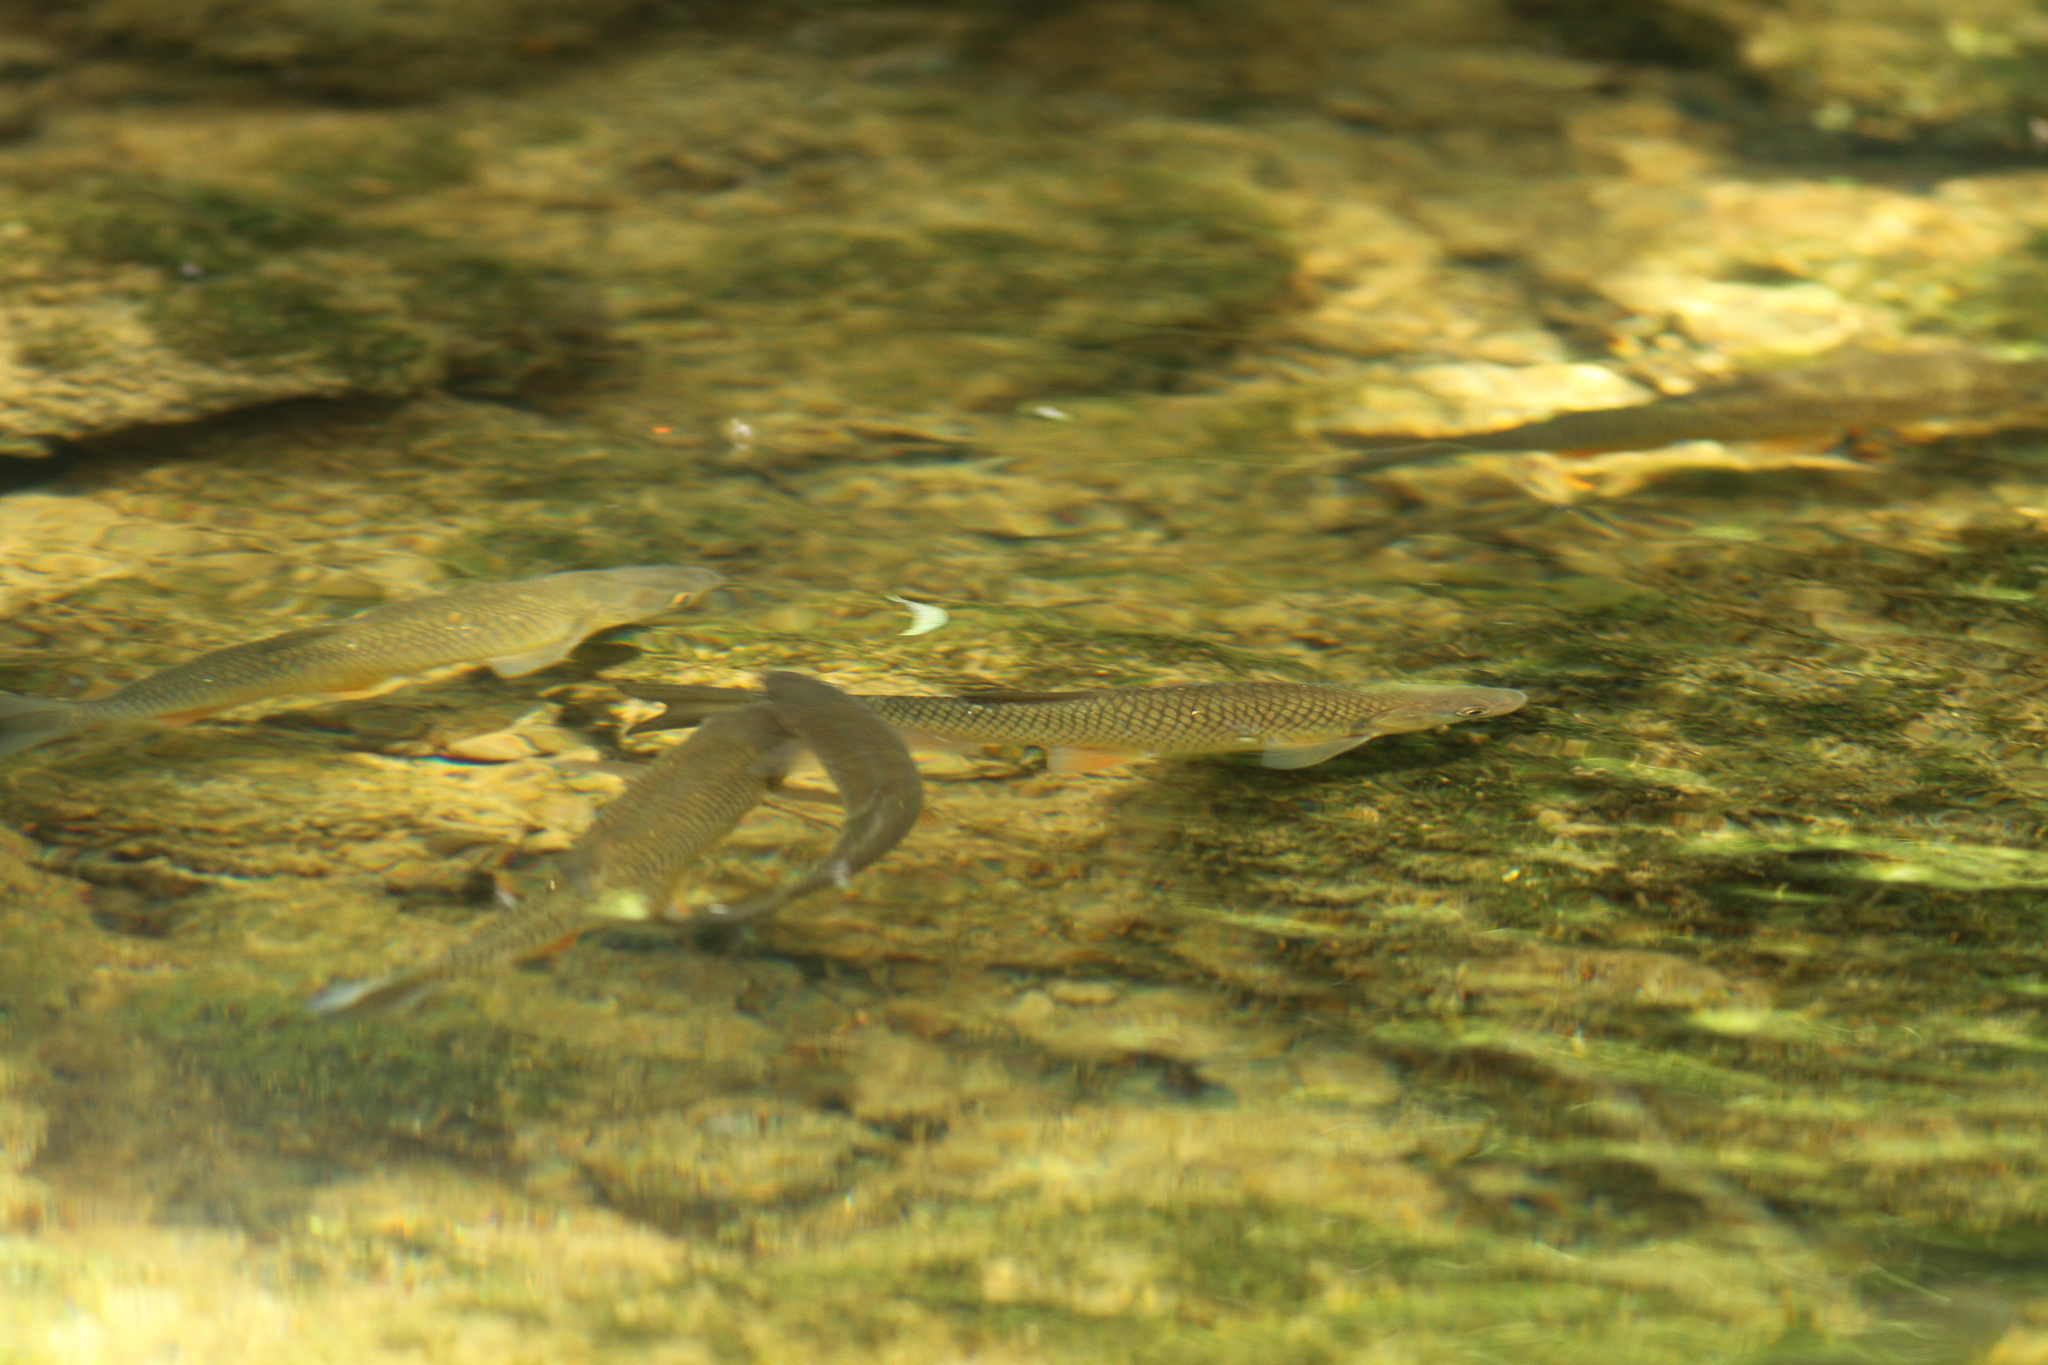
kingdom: Animalia
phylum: Chordata
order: Cypriniformes
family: Cyprinidae
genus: Squalius
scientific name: Squalius cephalus
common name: Chub
